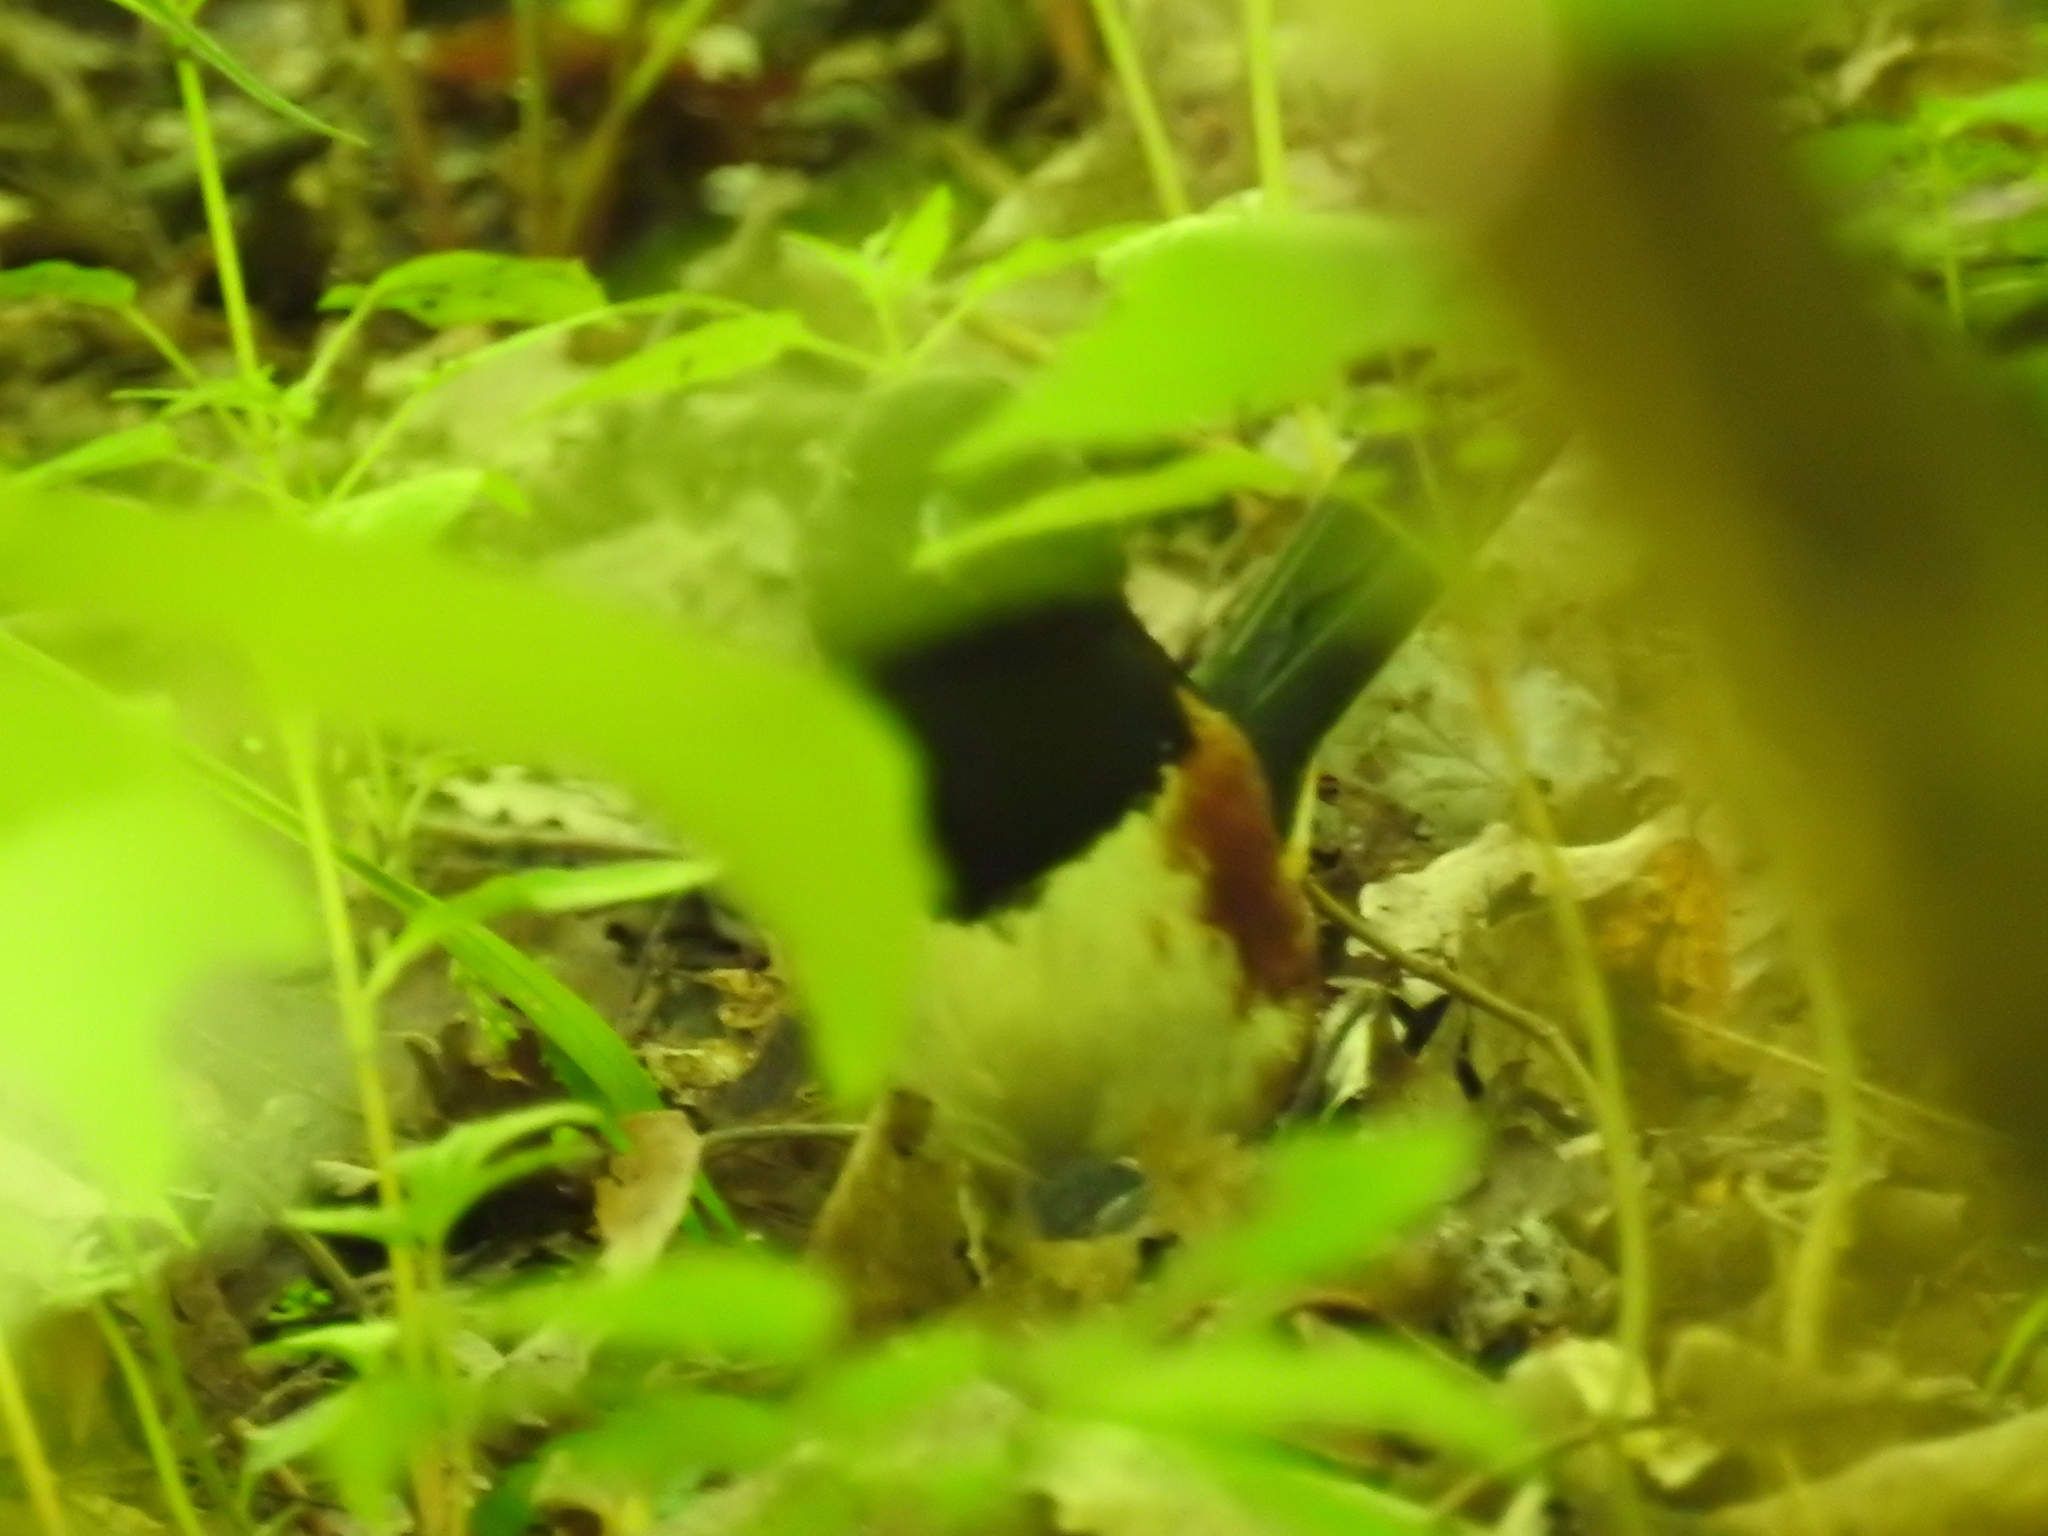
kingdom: Animalia
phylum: Chordata
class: Aves
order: Passeriformes
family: Passerellidae
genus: Pipilo
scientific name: Pipilo erythrophthalmus
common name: Eastern towhee
